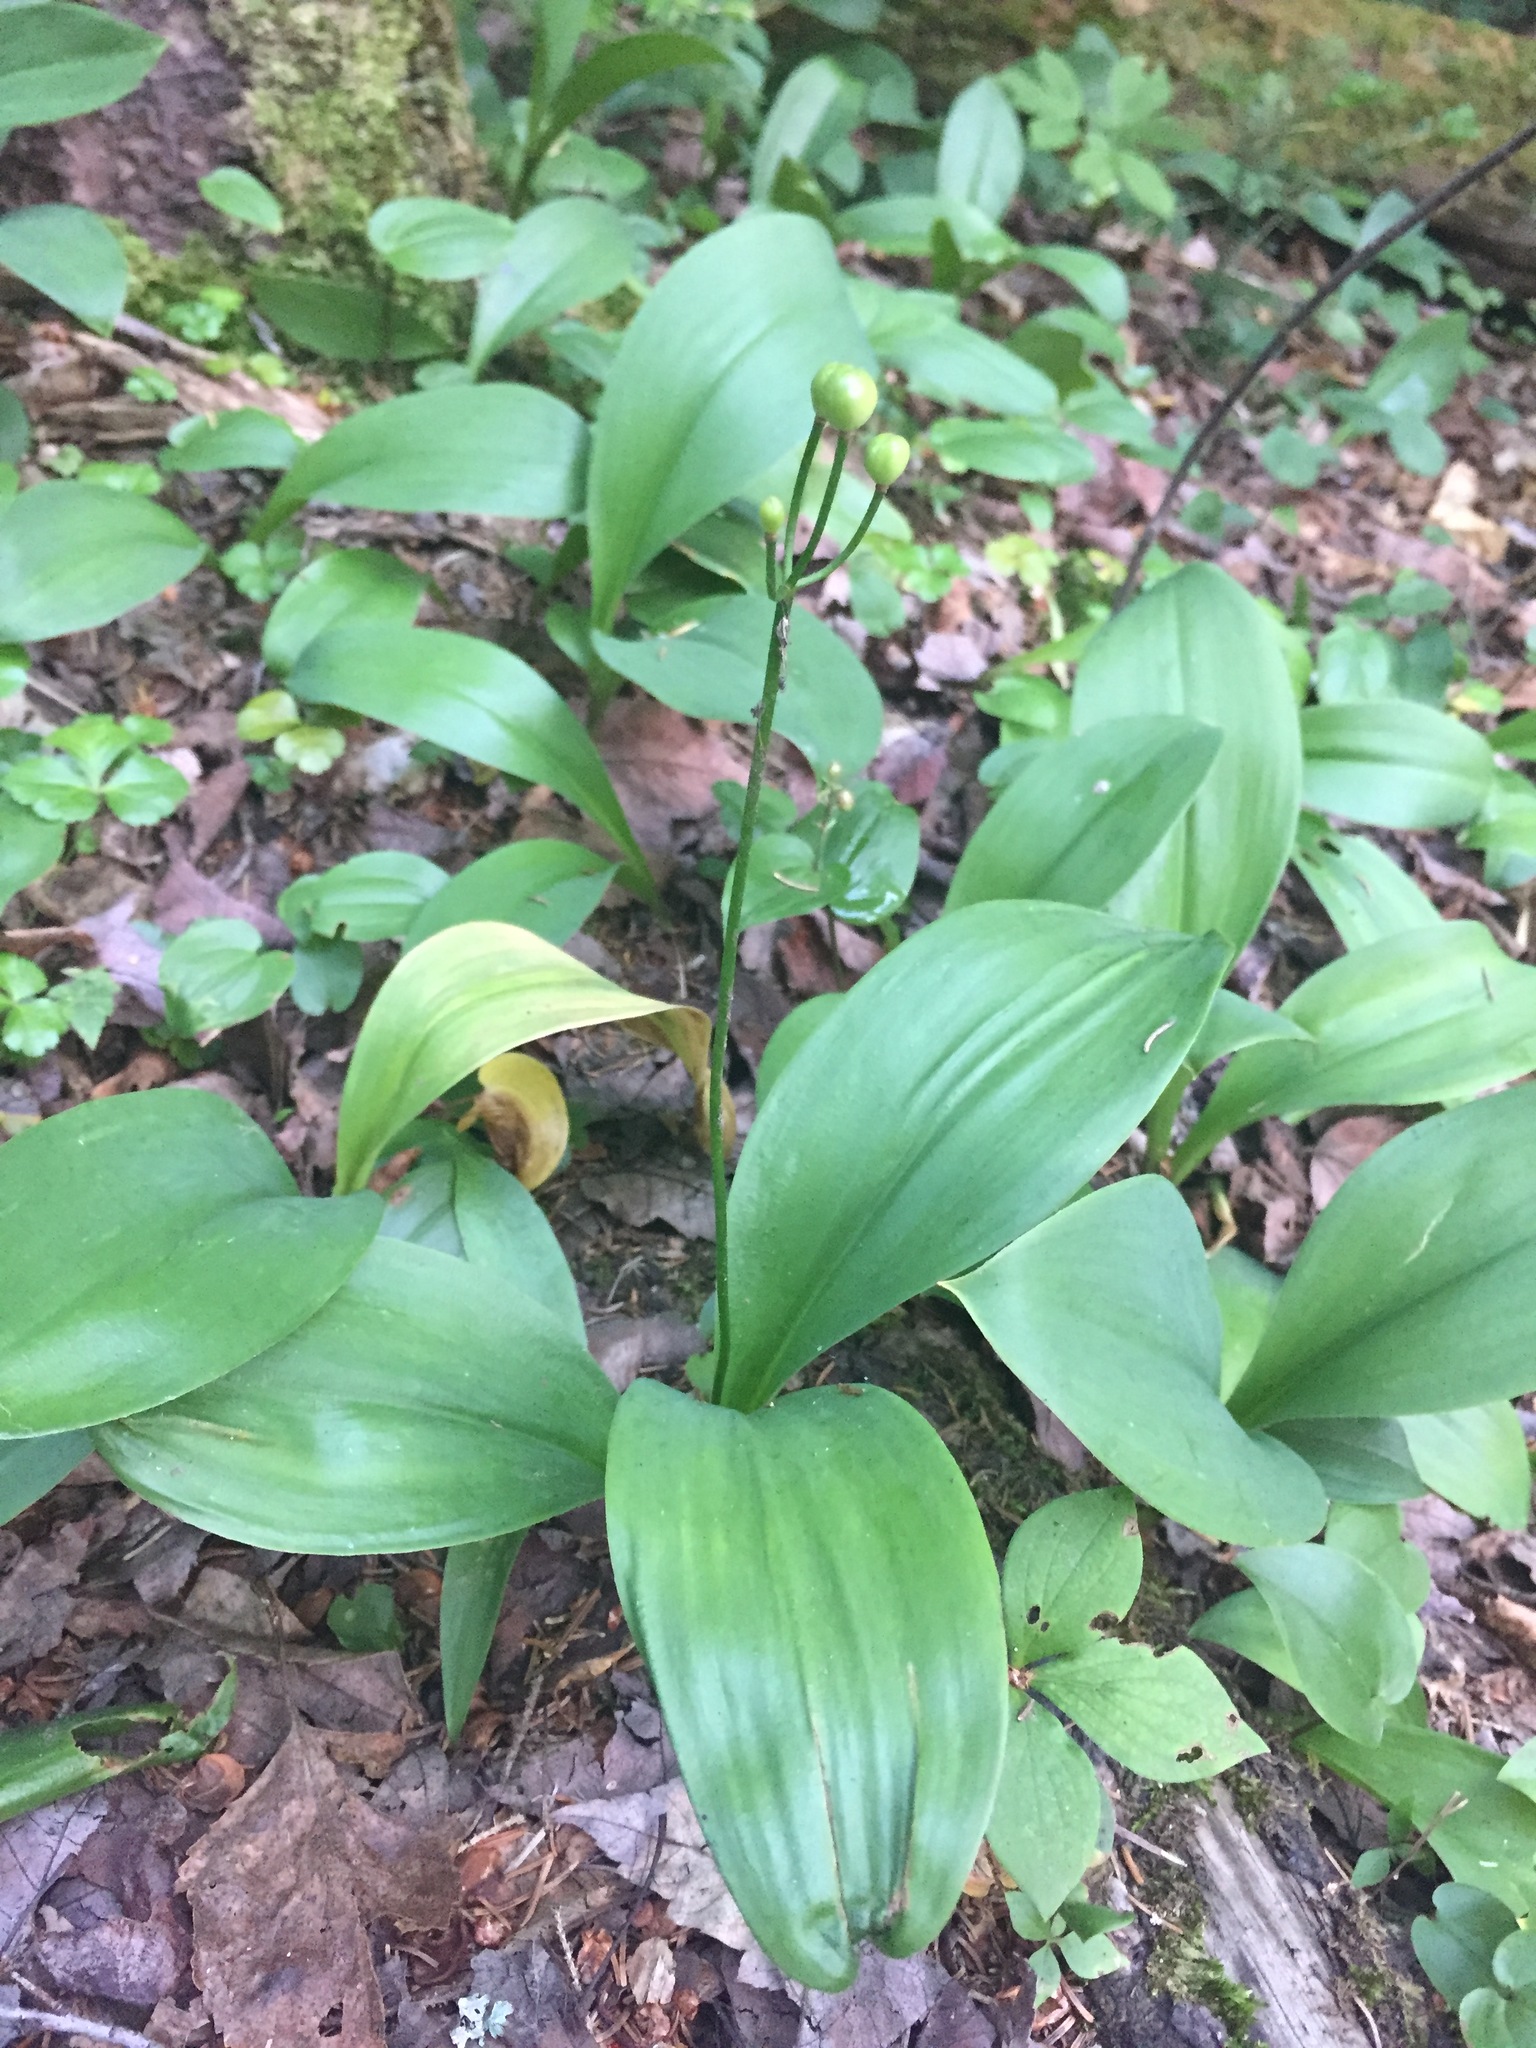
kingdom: Plantae
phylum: Tracheophyta
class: Liliopsida
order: Liliales
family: Liliaceae
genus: Clintonia
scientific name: Clintonia borealis
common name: Yellow clintonia
